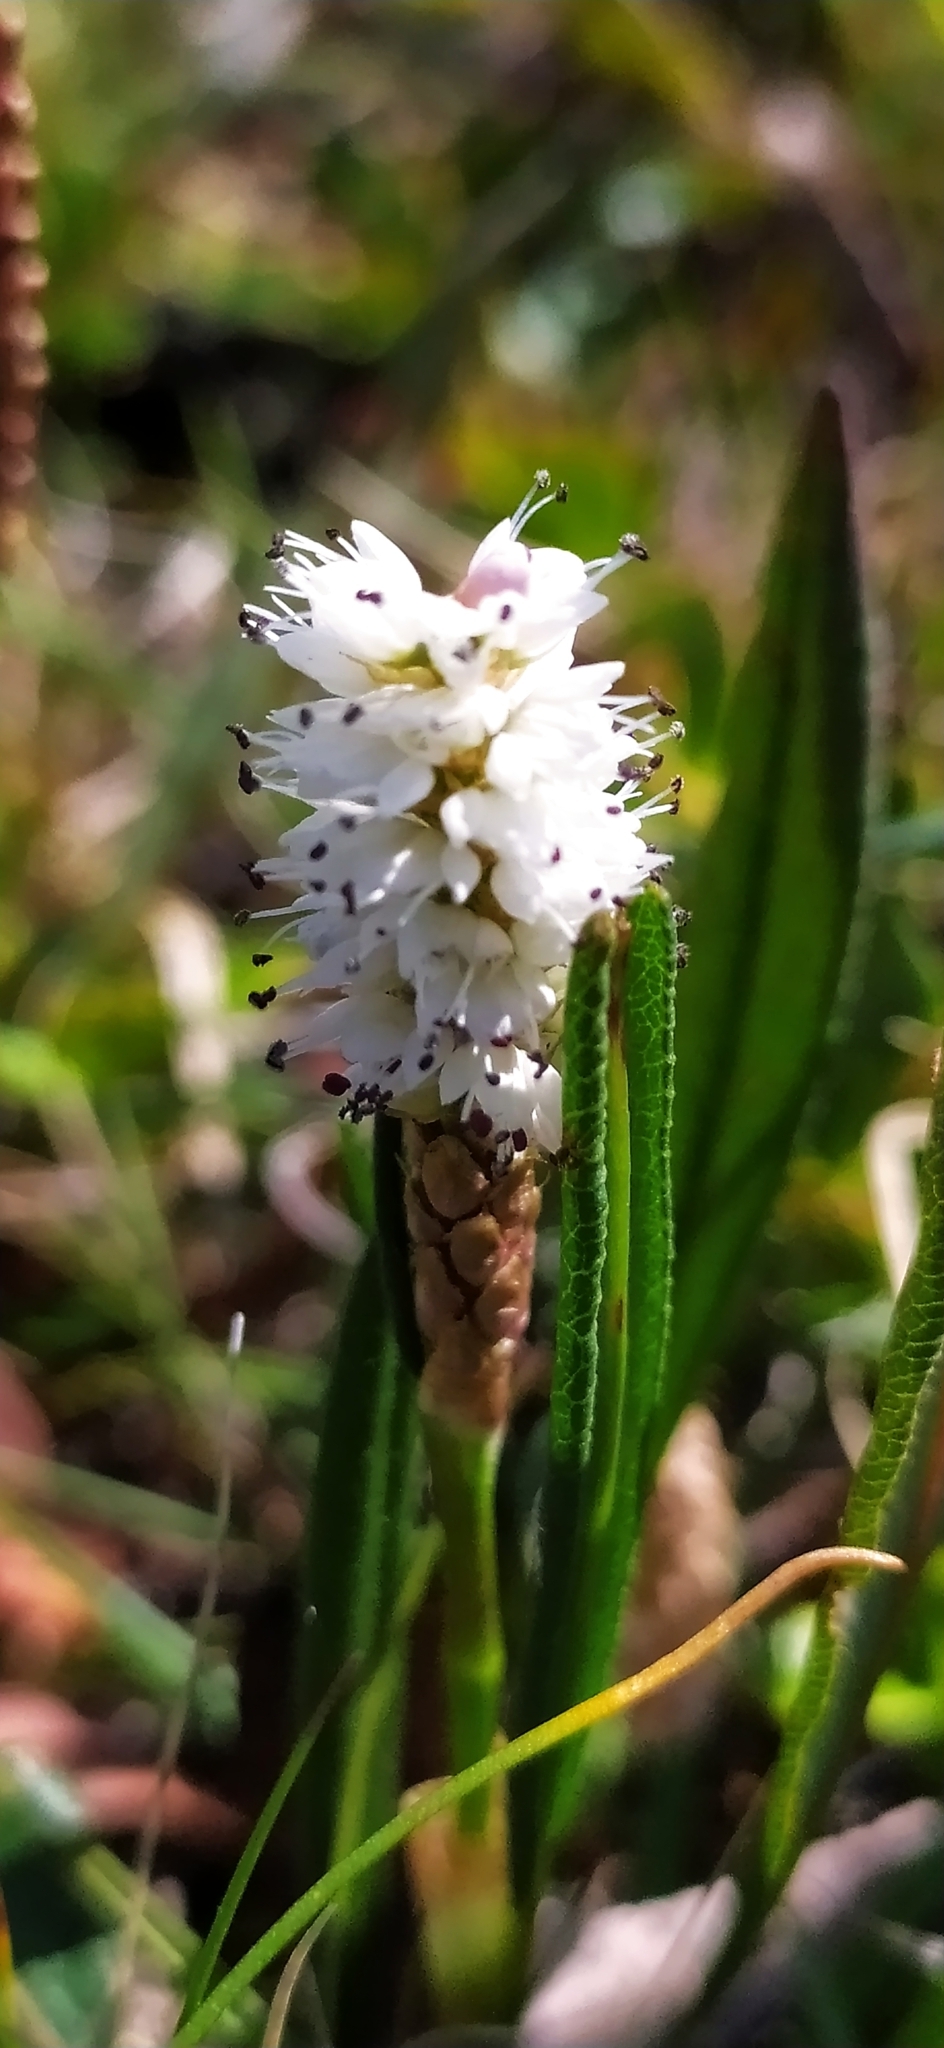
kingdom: Plantae
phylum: Tracheophyta
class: Magnoliopsida
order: Caryophyllales
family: Polygonaceae
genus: Bistorta
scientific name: Bistorta vivipara
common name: Alpine bistort
